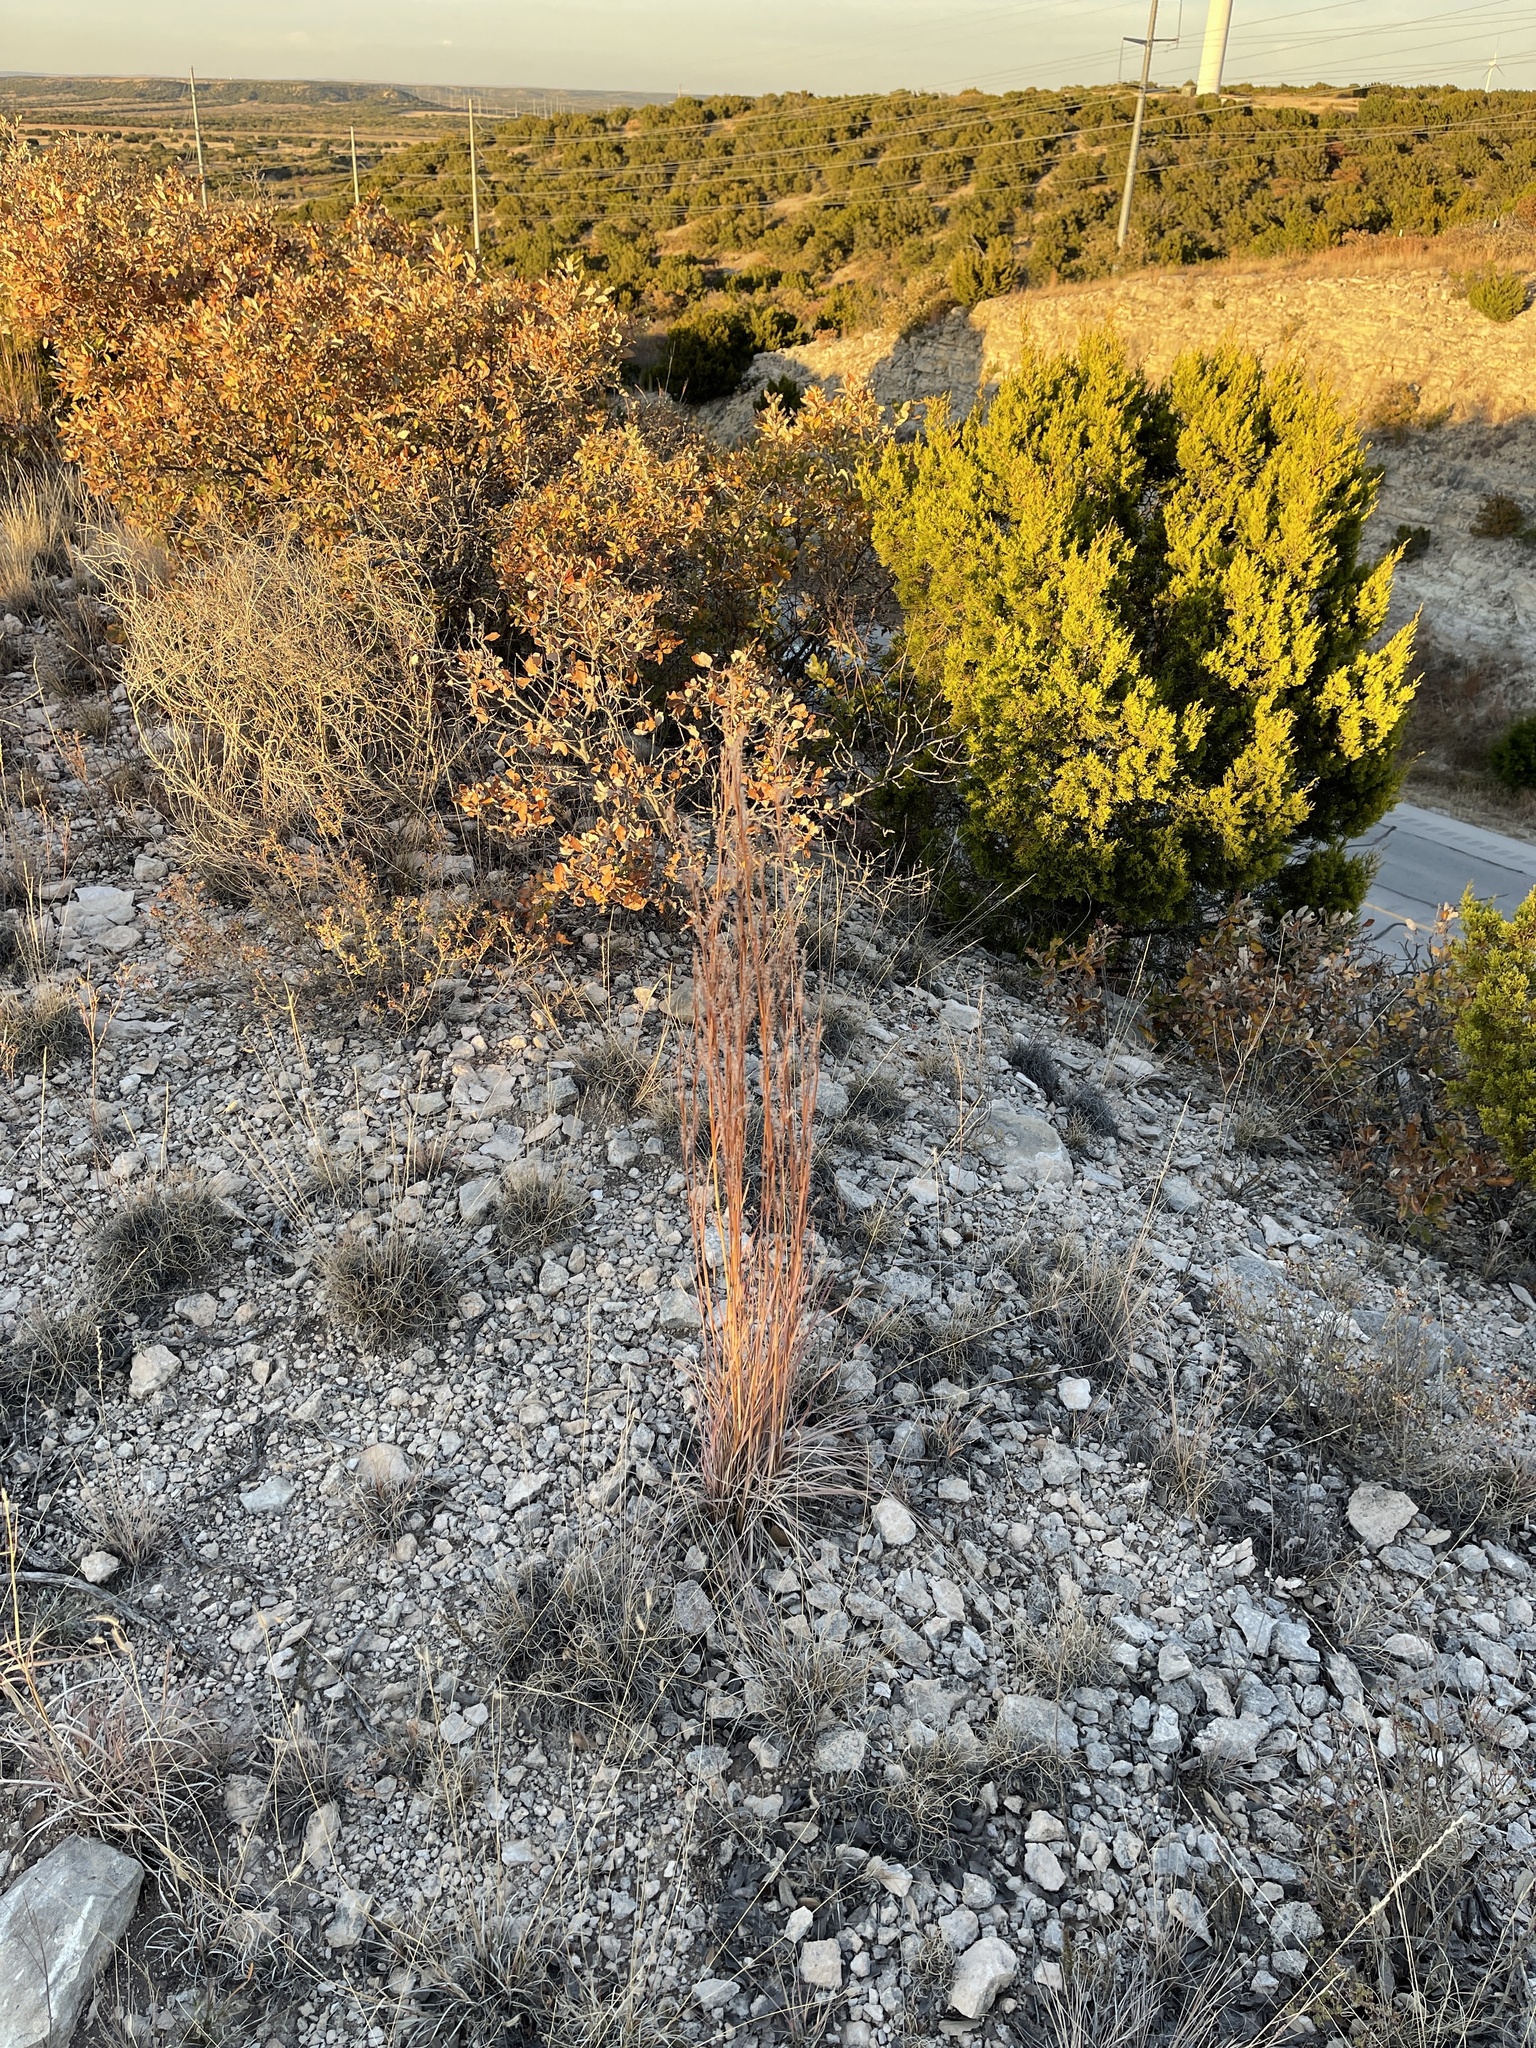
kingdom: Plantae
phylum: Tracheophyta
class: Liliopsida
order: Poales
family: Poaceae
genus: Schizachyrium
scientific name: Schizachyrium scoparium
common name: Little bluestem
